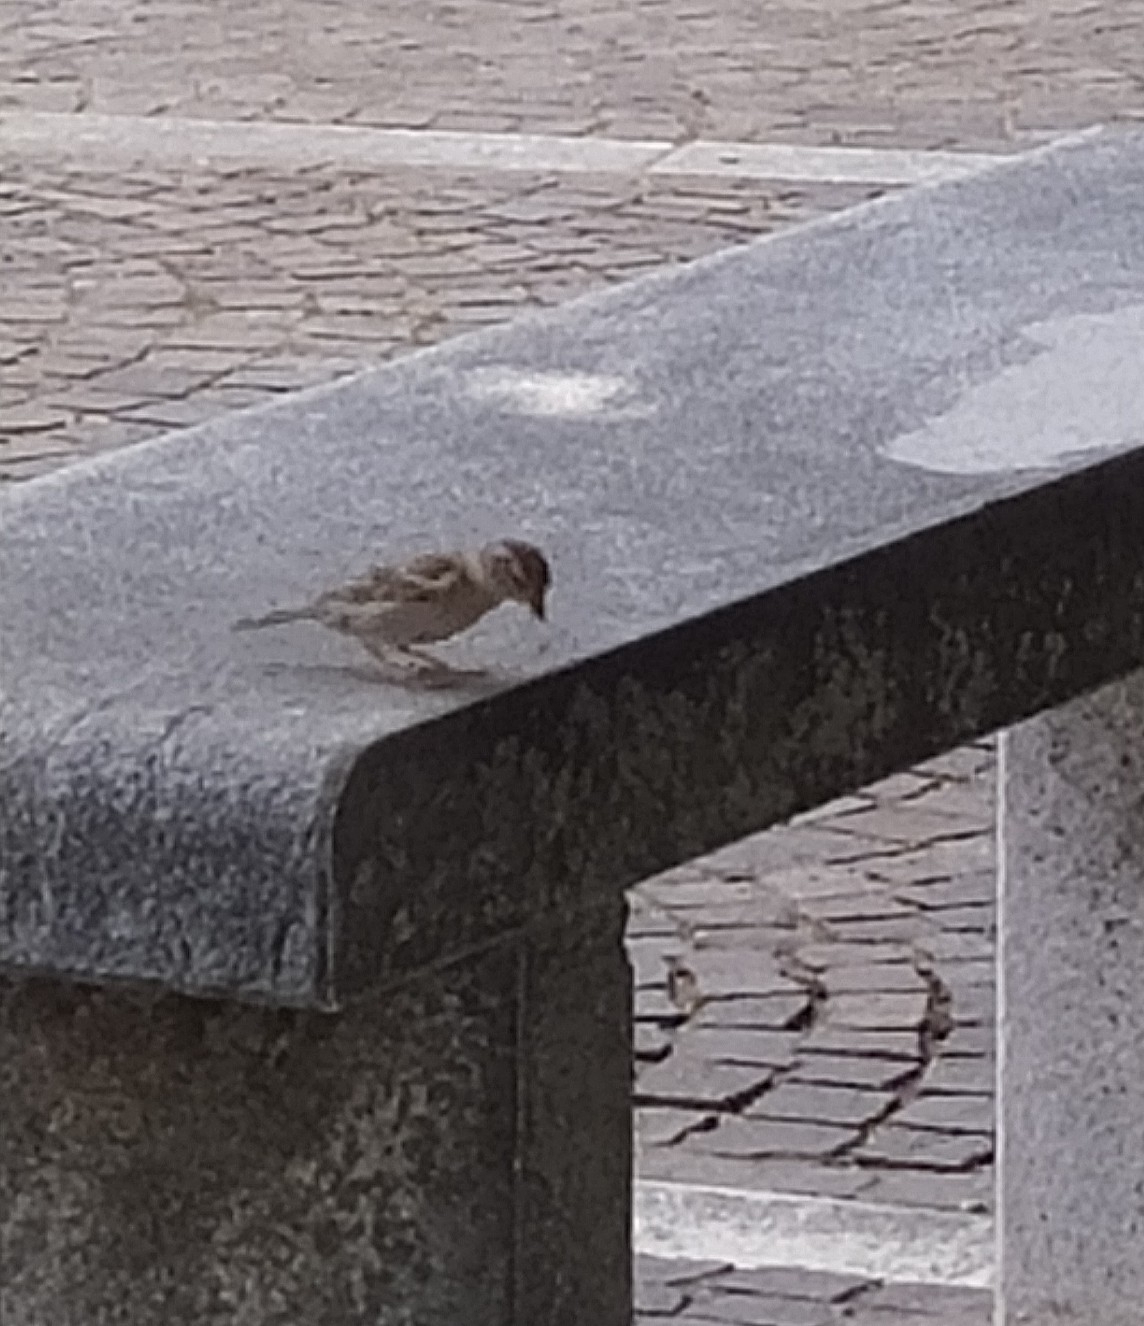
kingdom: Animalia
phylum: Chordata
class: Aves
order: Passeriformes
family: Passeridae
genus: Passer
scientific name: Passer italiae
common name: Italian sparrow
